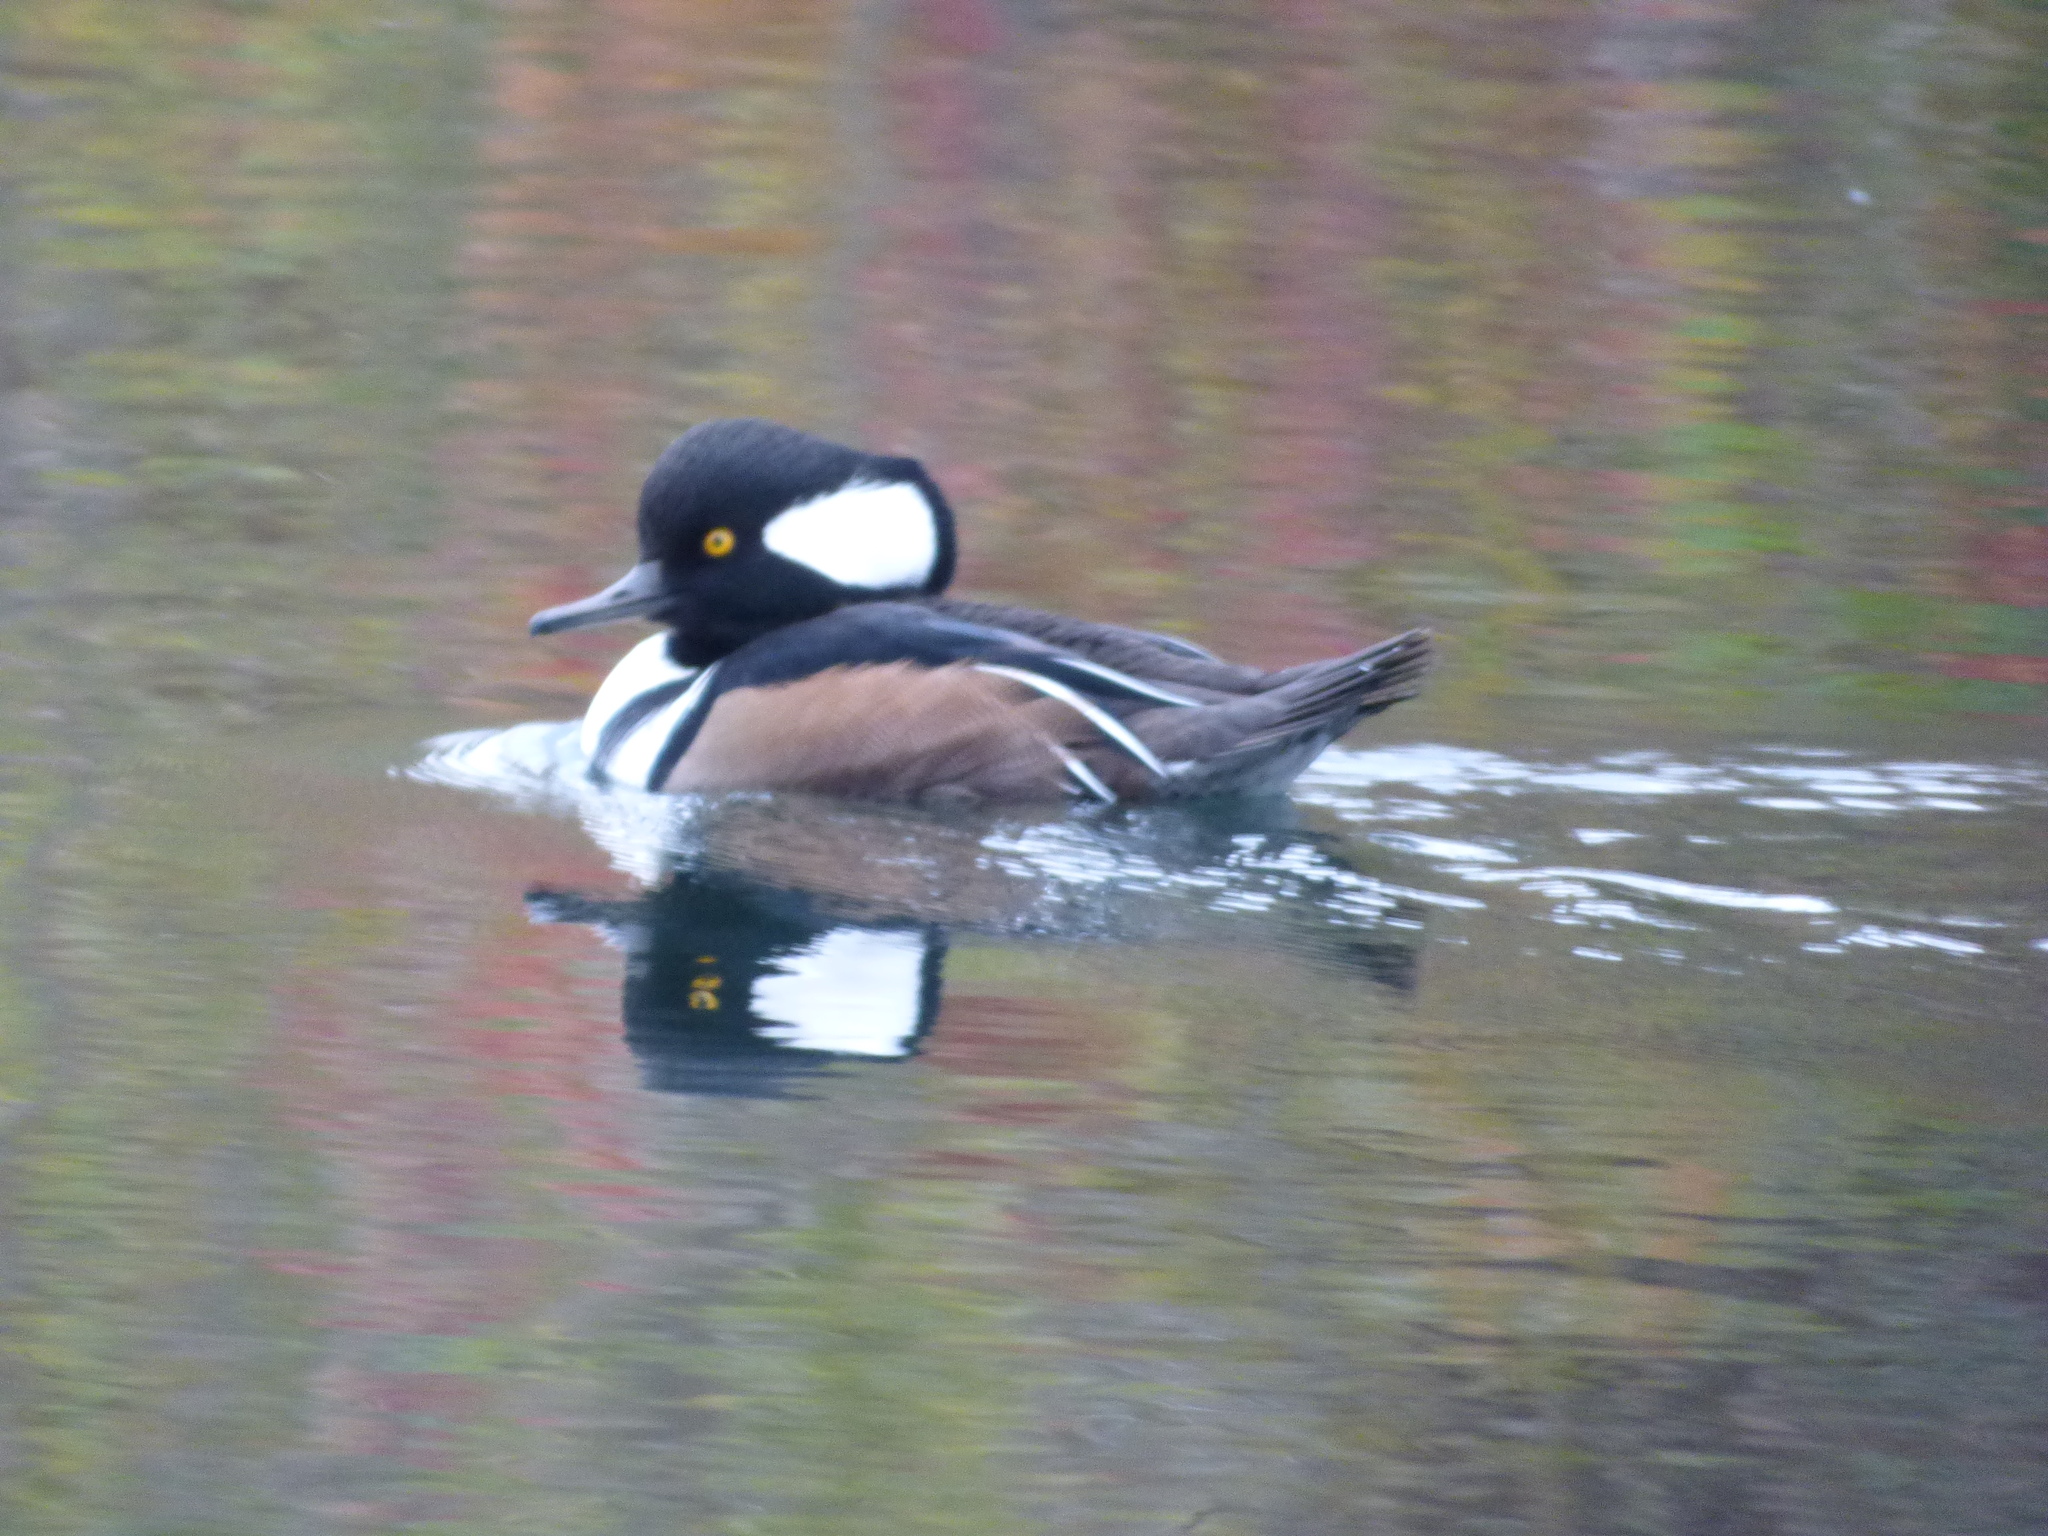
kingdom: Animalia
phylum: Chordata
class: Aves
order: Anseriformes
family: Anatidae
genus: Lophodytes
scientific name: Lophodytes cucullatus
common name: Hooded merganser
